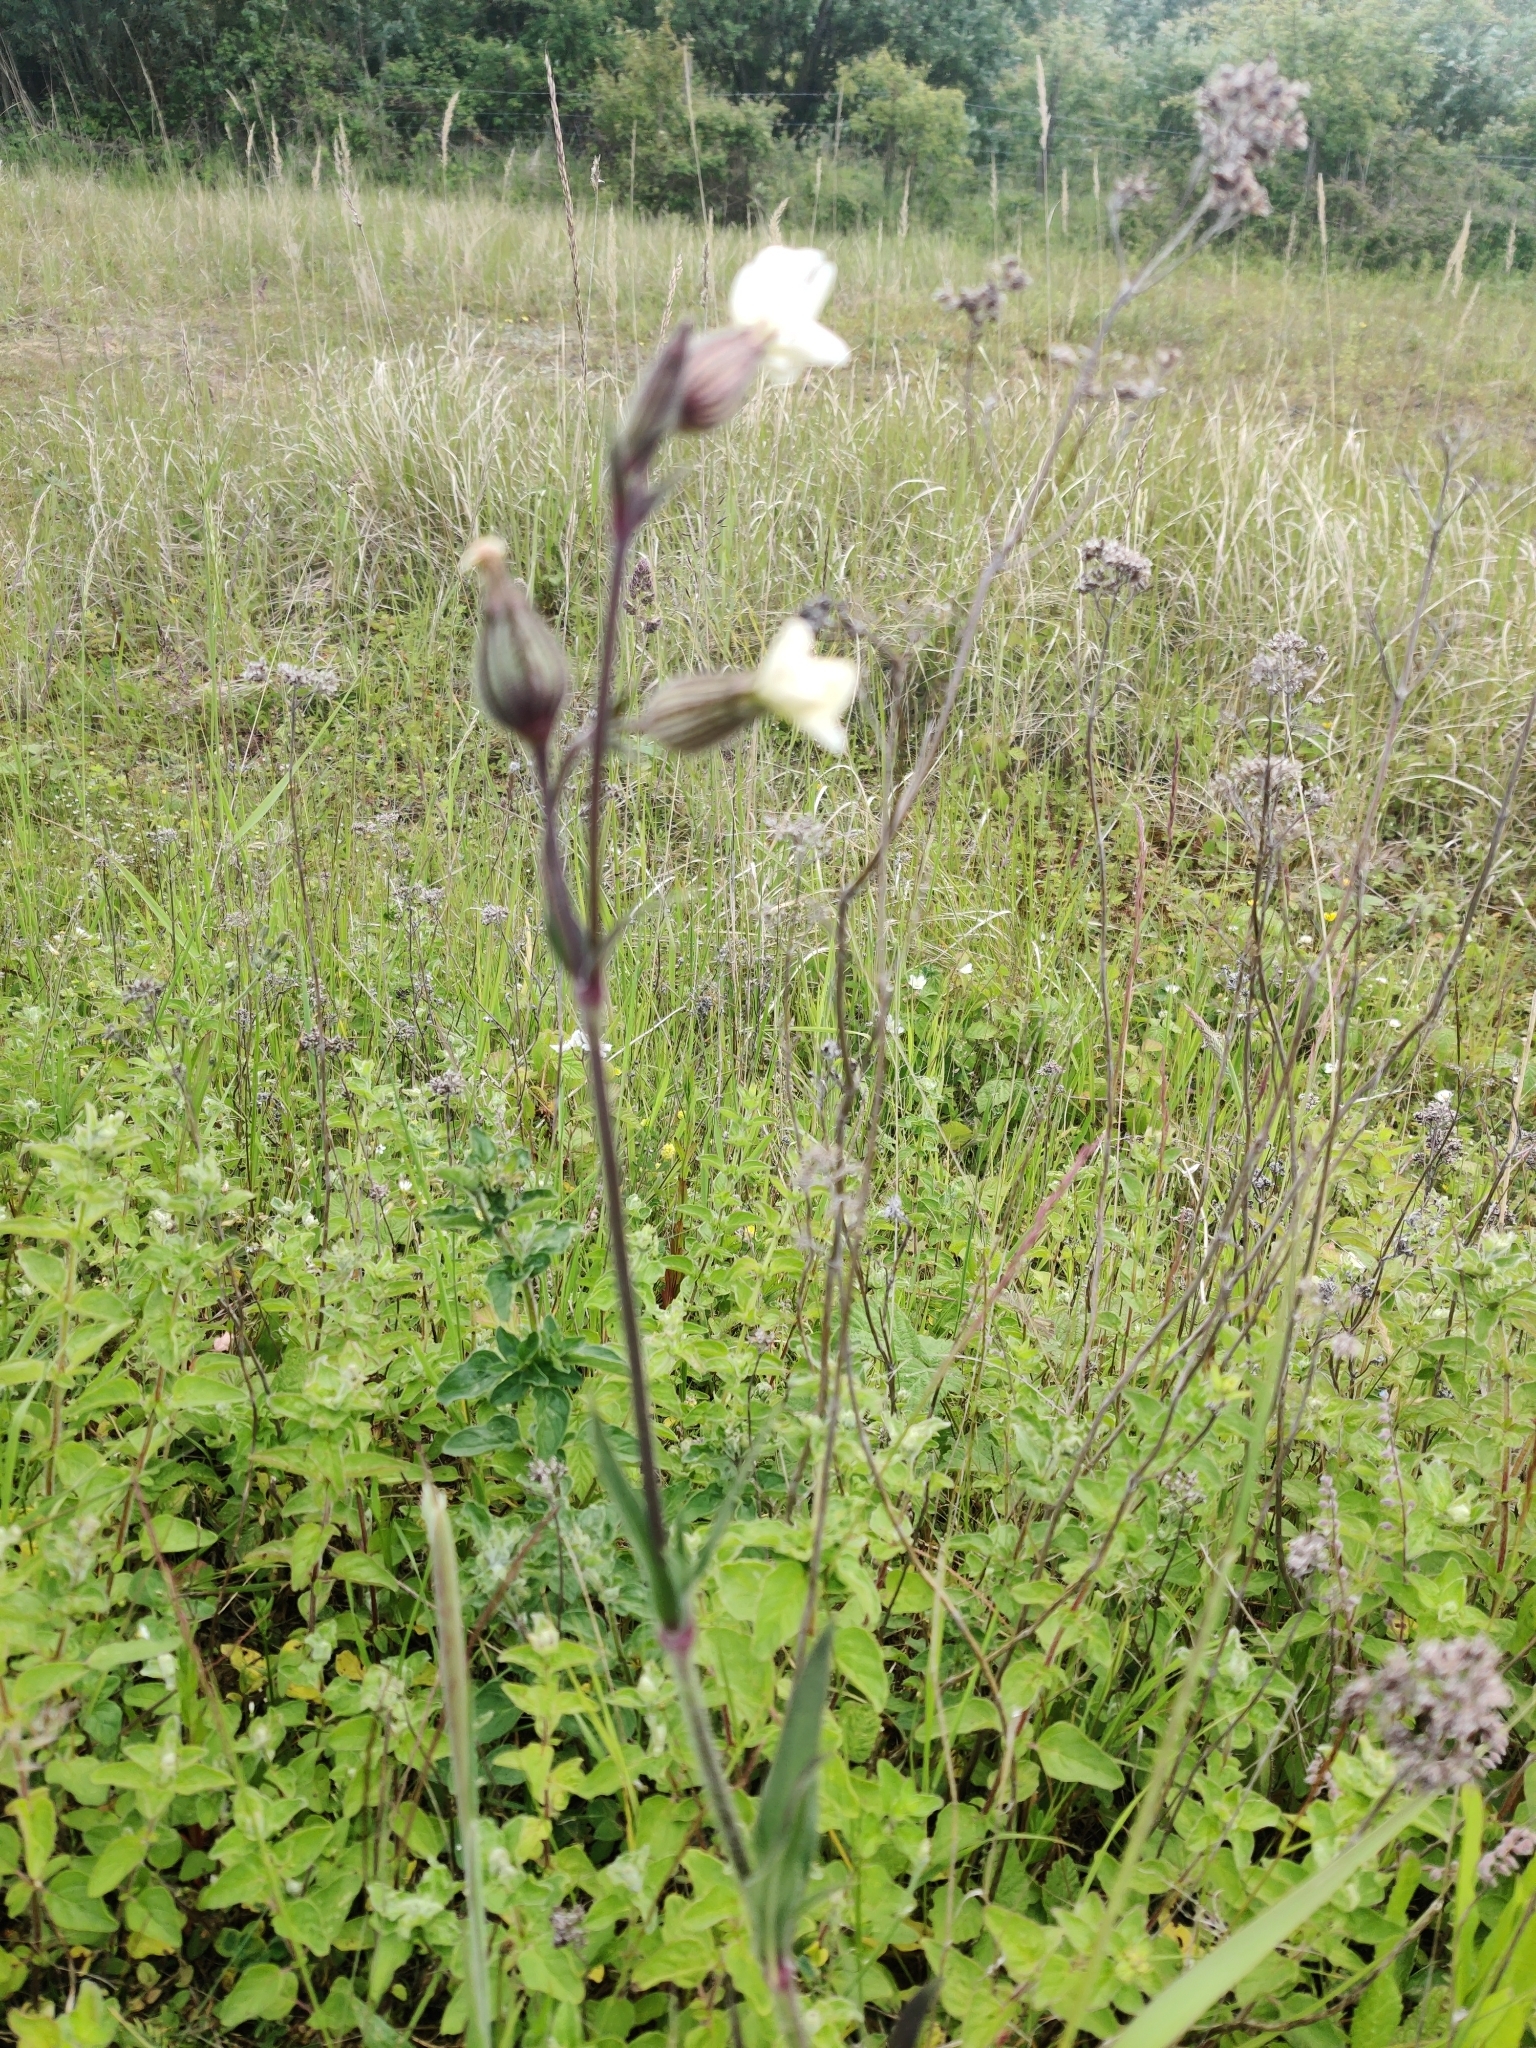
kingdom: Plantae
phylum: Tracheophyta
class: Magnoliopsida
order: Caryophyllales
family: Caryophyllaceae
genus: Silene
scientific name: Silene latifolia
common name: White campion
